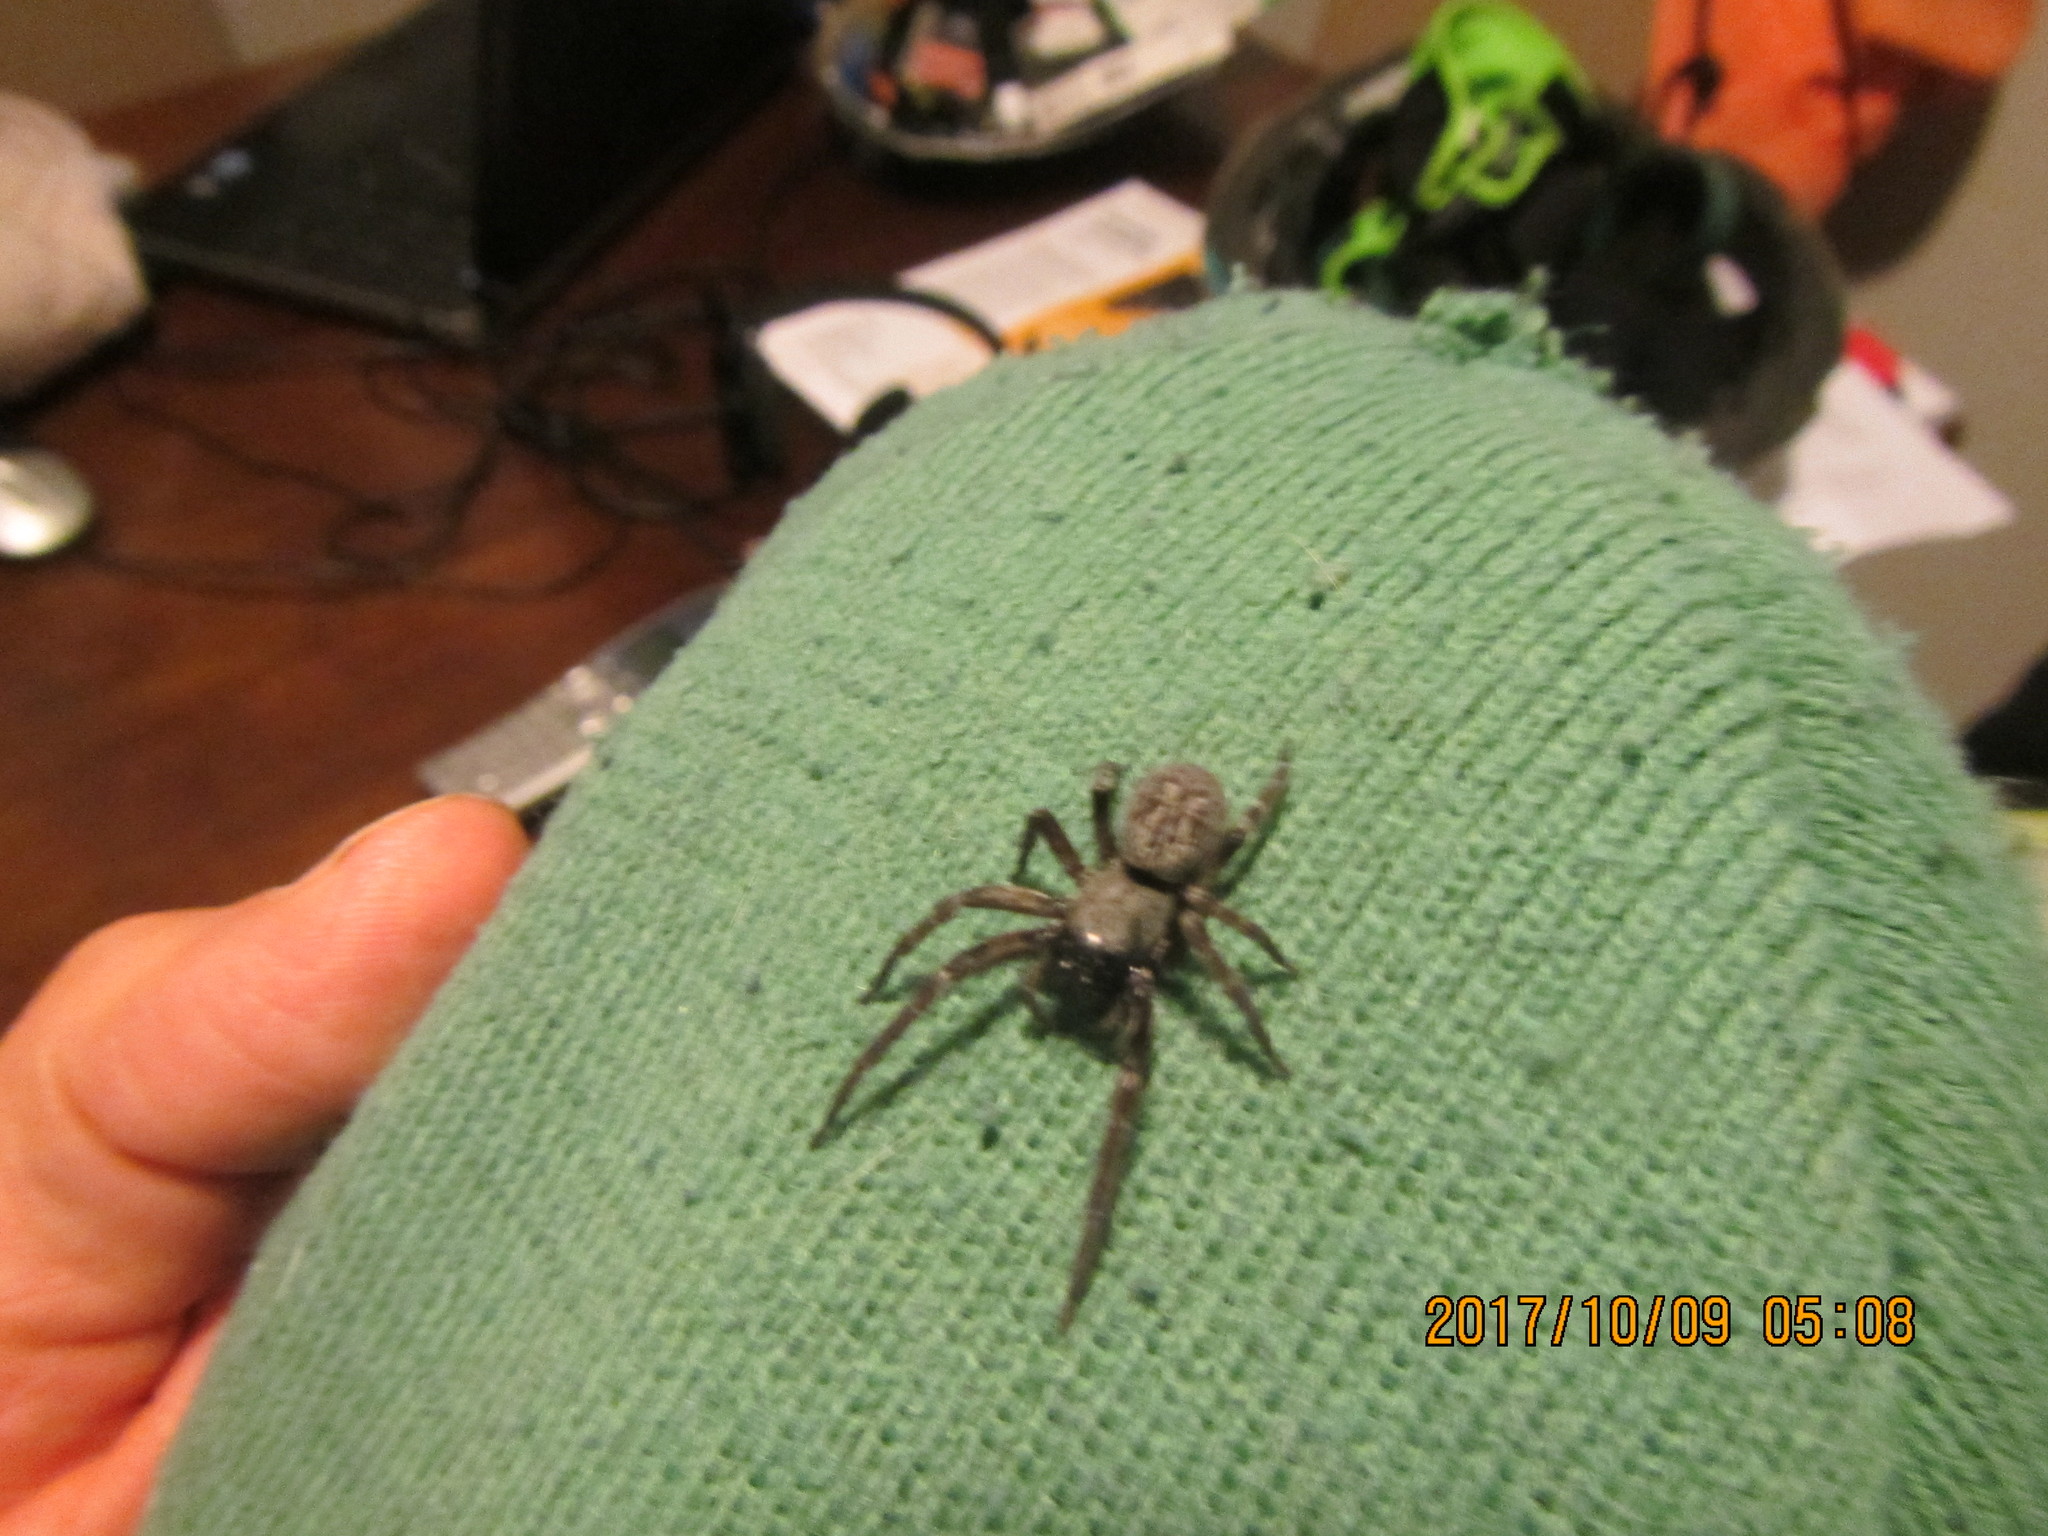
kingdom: Animalia
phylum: Arthropoda
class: Arachnida
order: Araneae
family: Desidae
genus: Badumna
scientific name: Badumna longinqua
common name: Gray house spider
